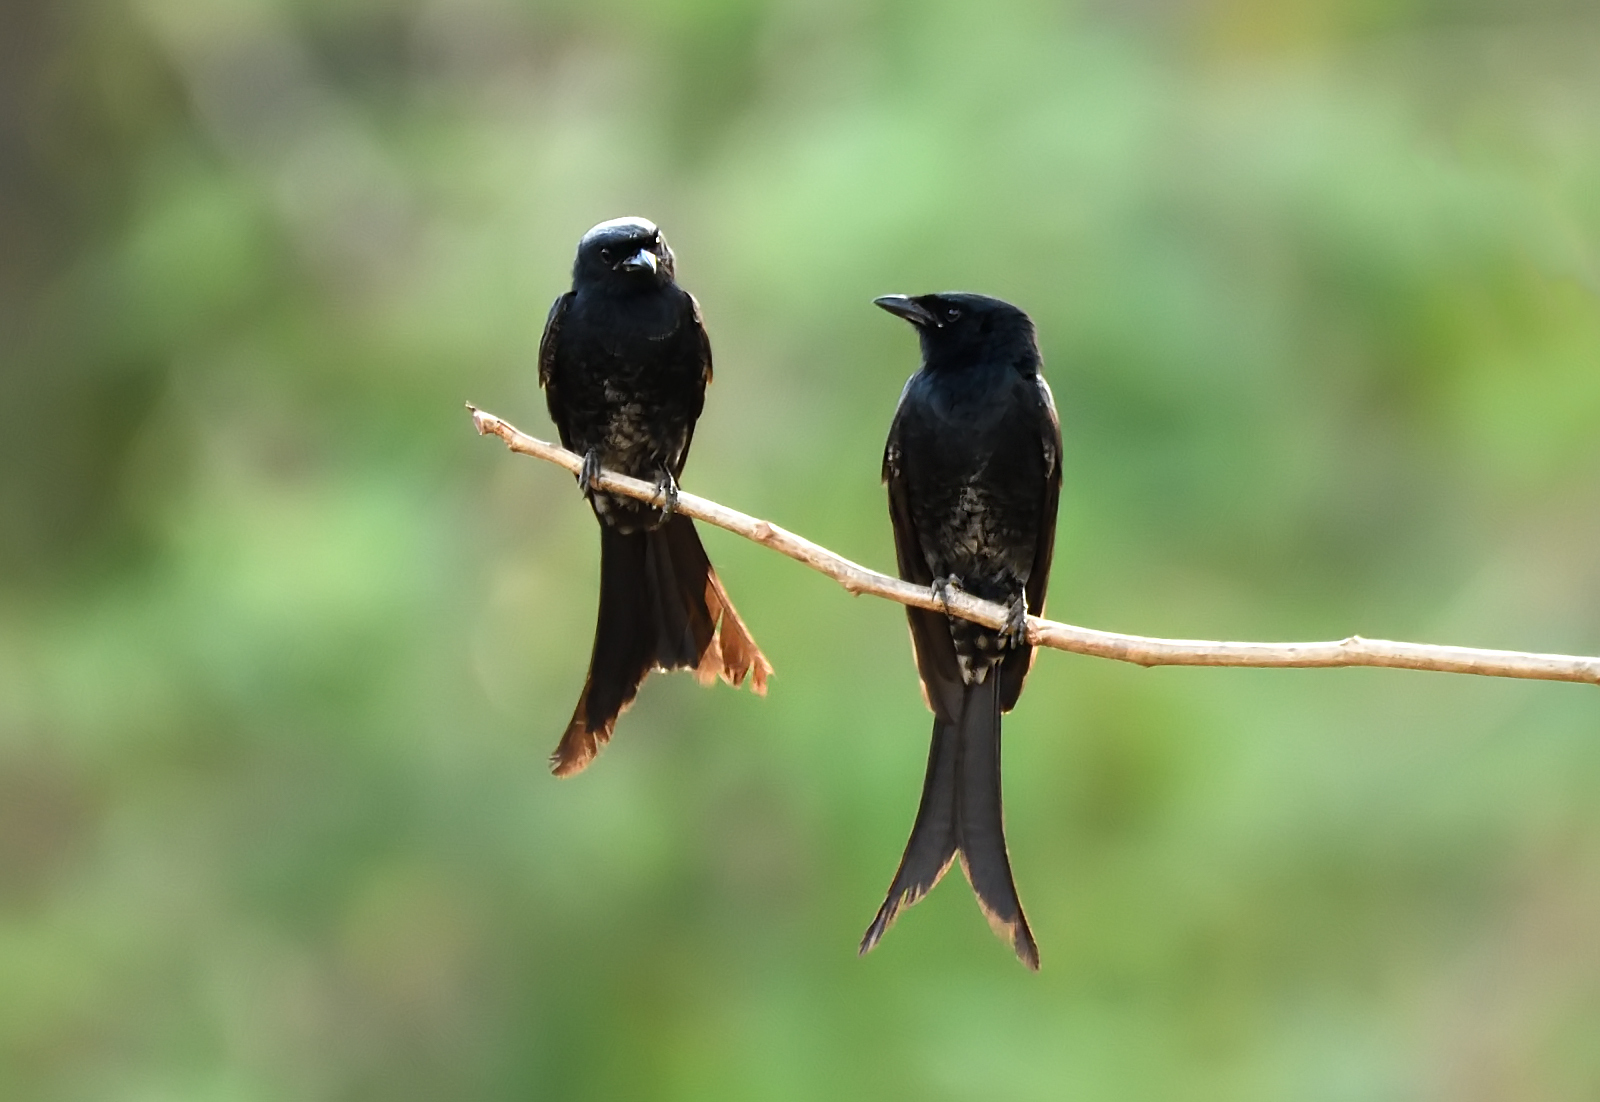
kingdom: Animalia
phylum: Chordata
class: Aves
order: Passeriformes
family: Dicruridae
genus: Dicrurus
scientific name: Dicrurus macrocercus
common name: Black drongo
